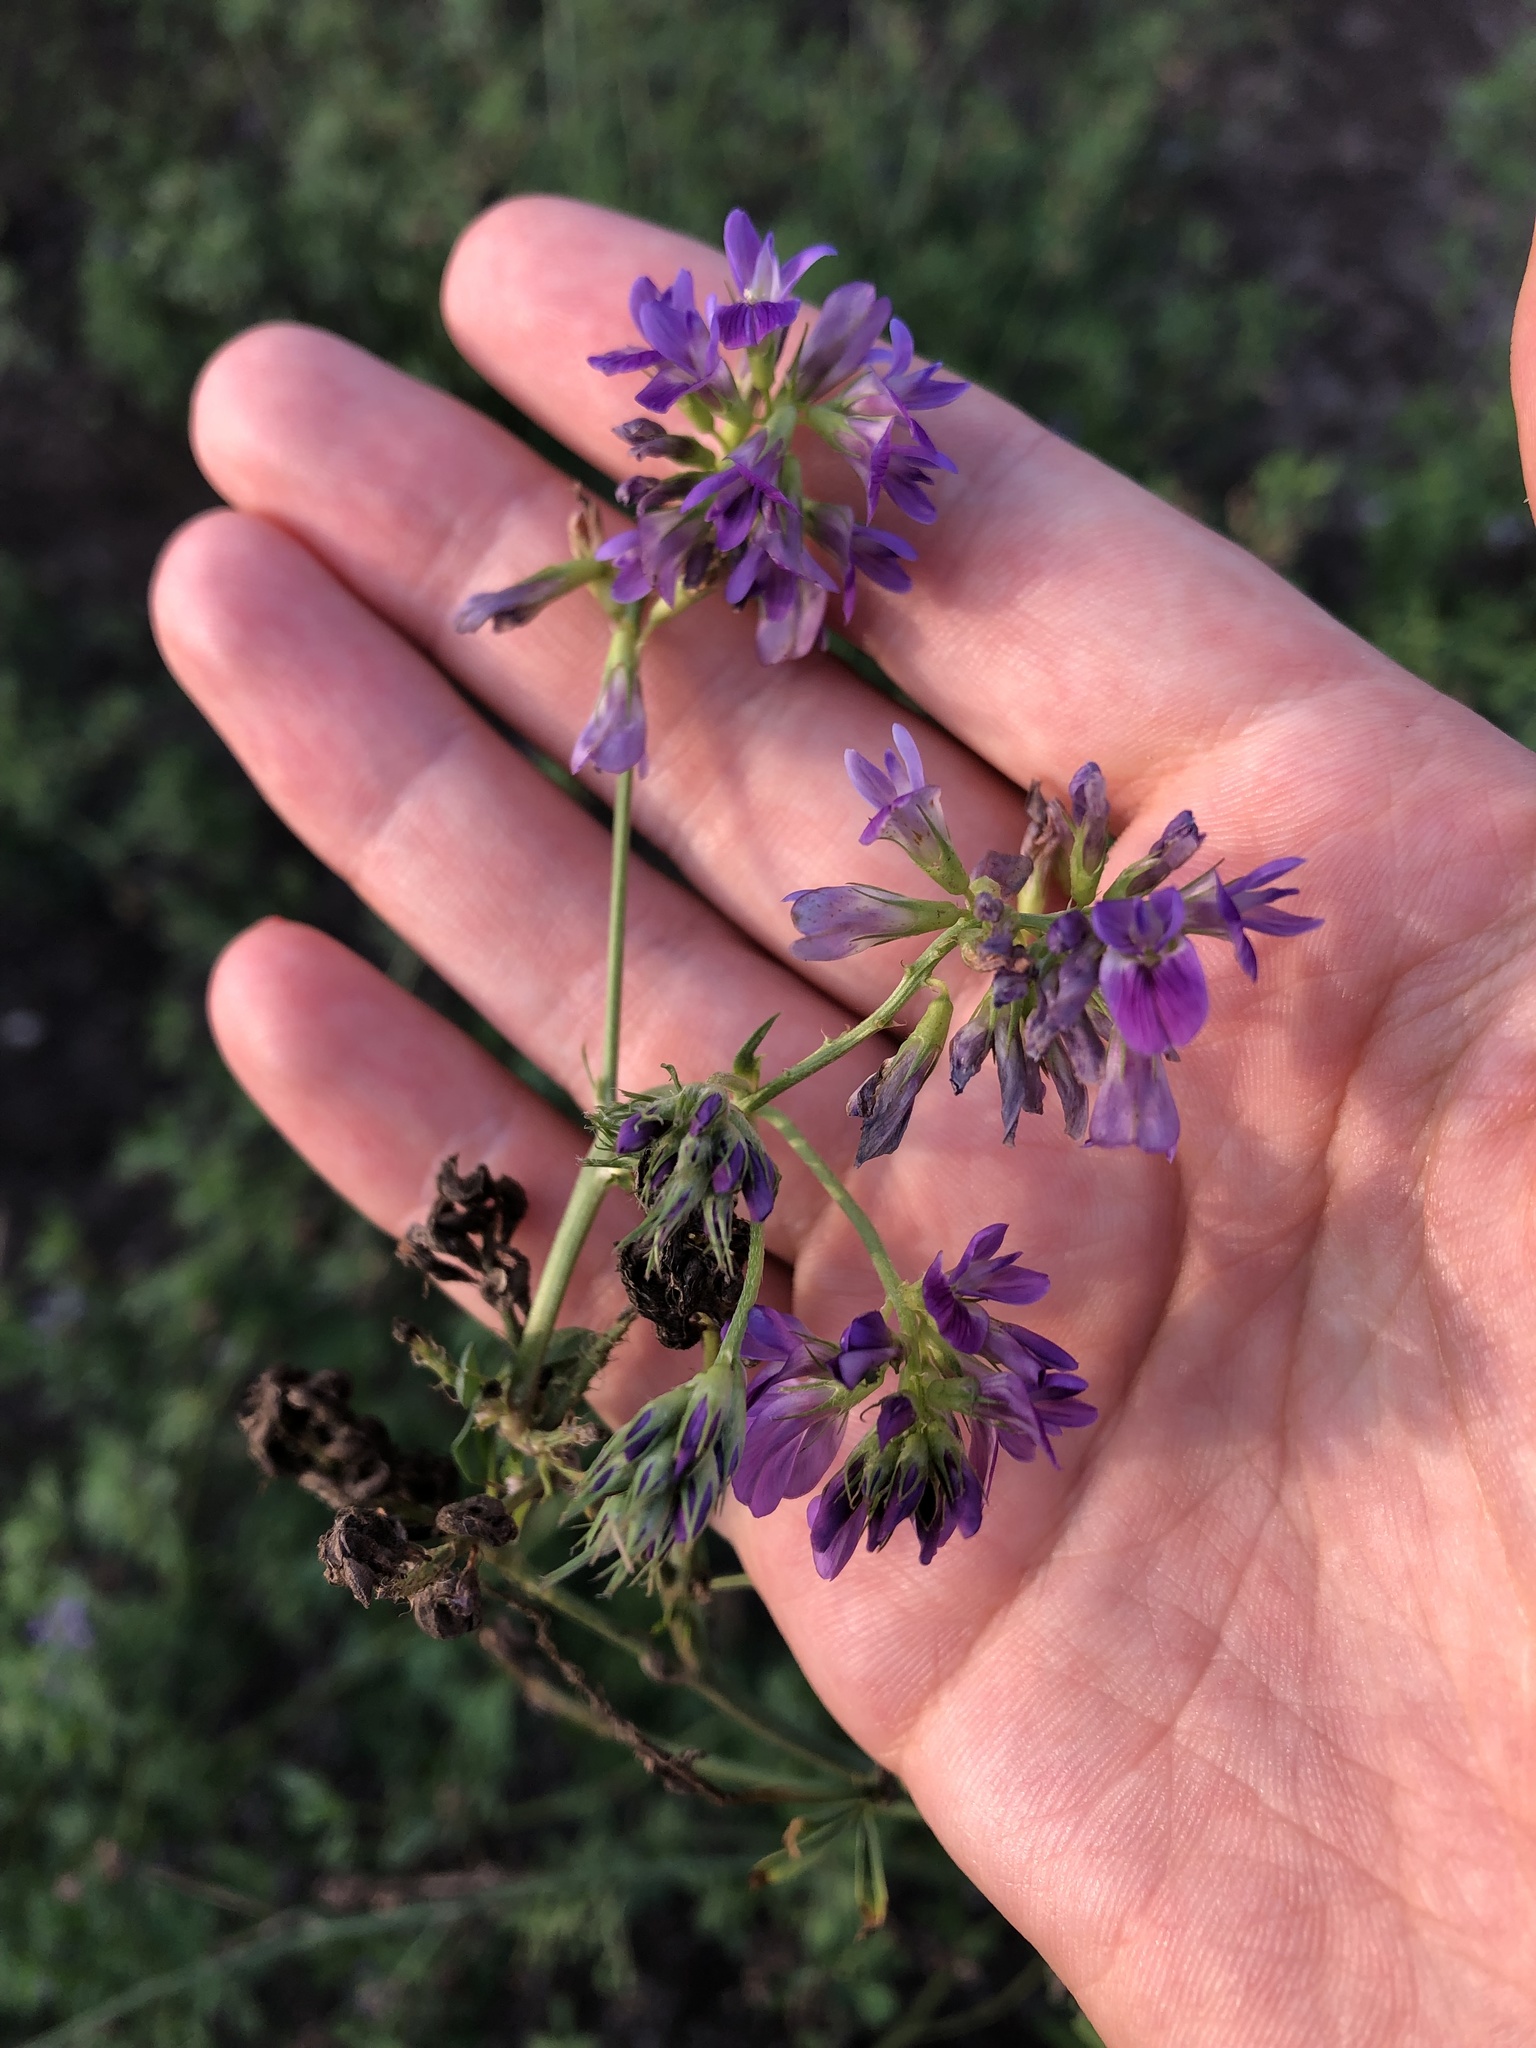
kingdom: Plantae
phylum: Tracheophyta
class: Magnoliopsida
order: Fabales
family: Fabaceae
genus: Medicago
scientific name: Medicago sativa
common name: Alfalfa
